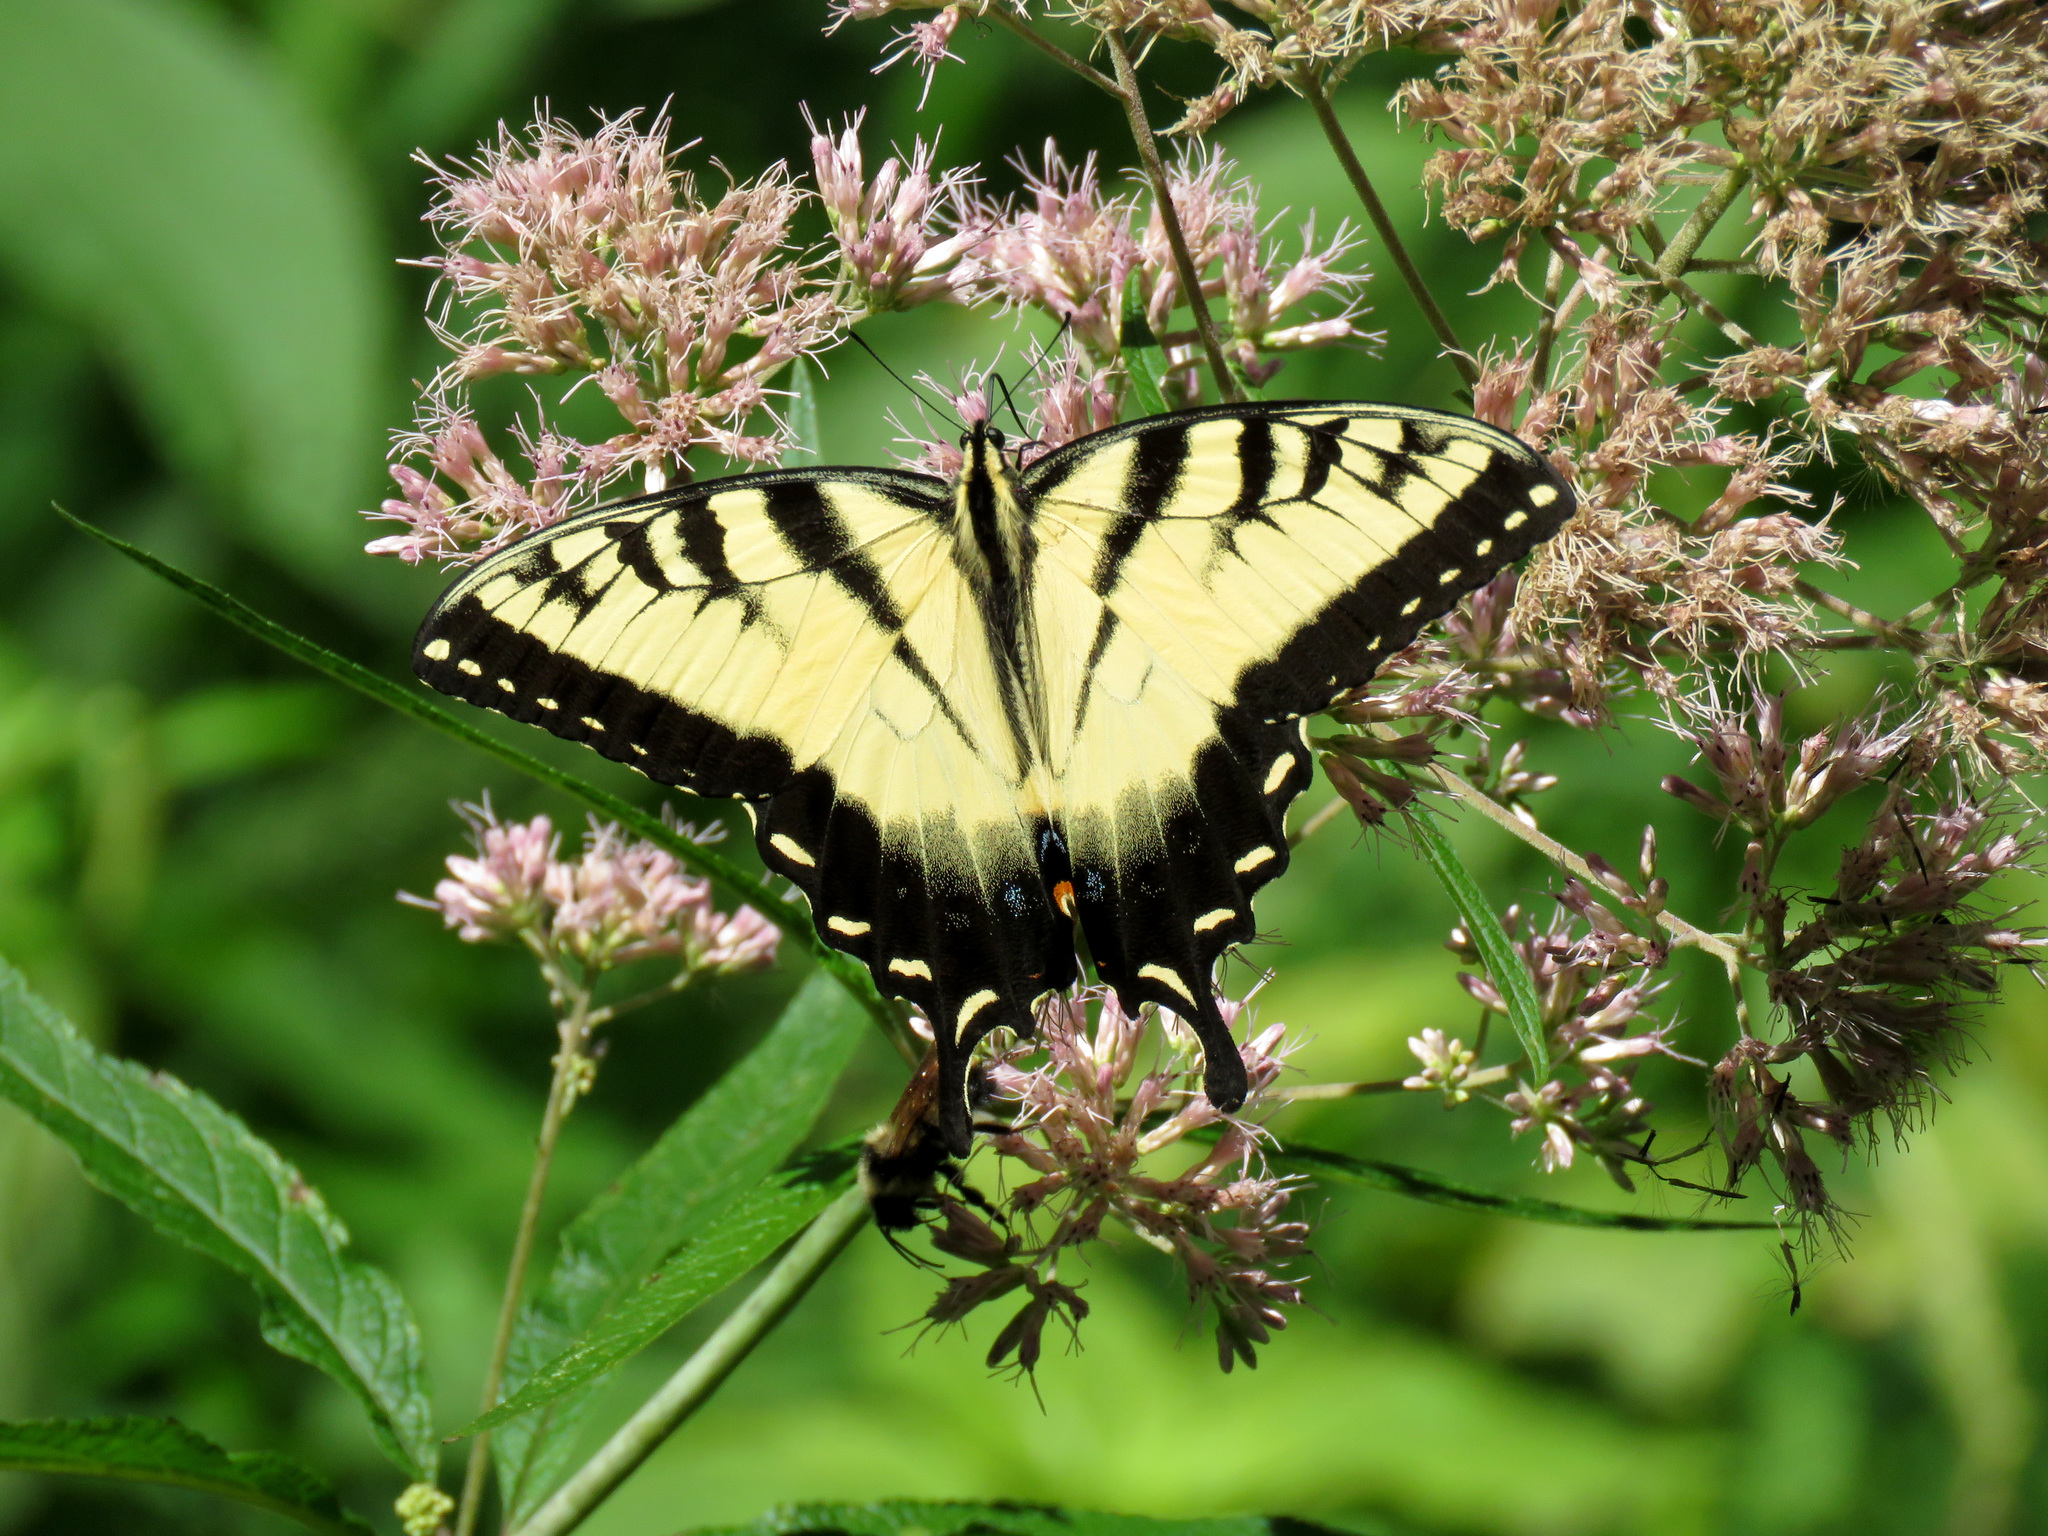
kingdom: Animalia
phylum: Arthropoda
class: Insecta
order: Lepidoptera
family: Papilionidae
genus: Papilio
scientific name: Papilio glaucus
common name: Tiger swallowtail
